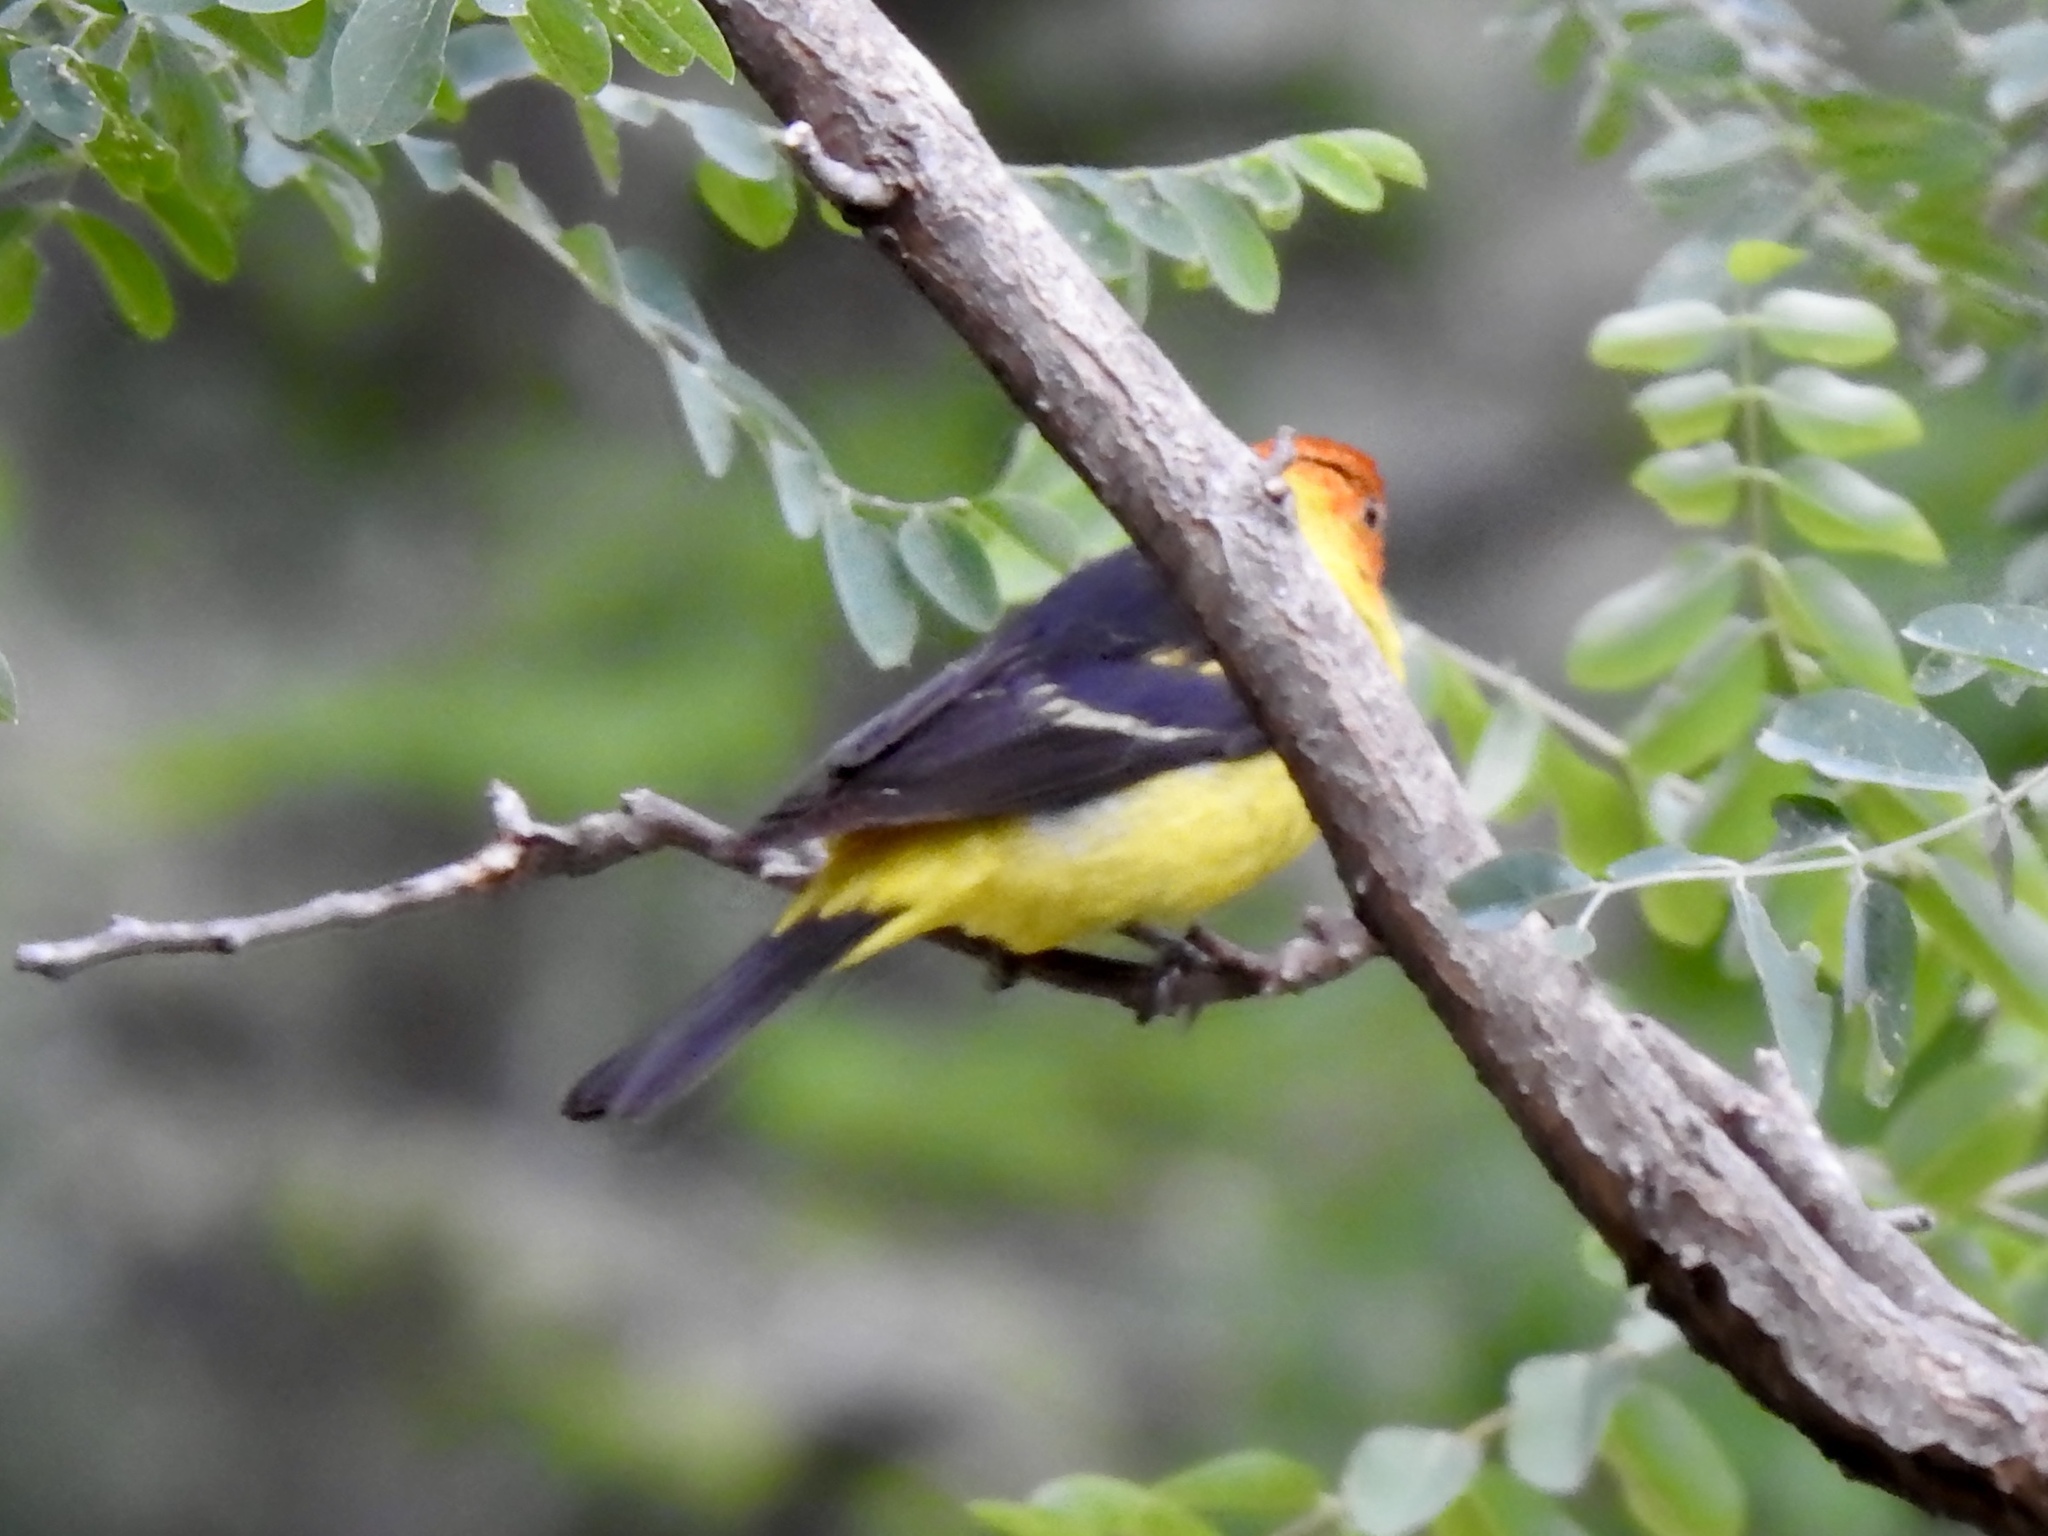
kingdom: Animalia
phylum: Chordata
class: Aves
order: Passeriformes
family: Cardinalidae
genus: Piranga
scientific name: Piranga ludoviciana
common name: Western tanager
